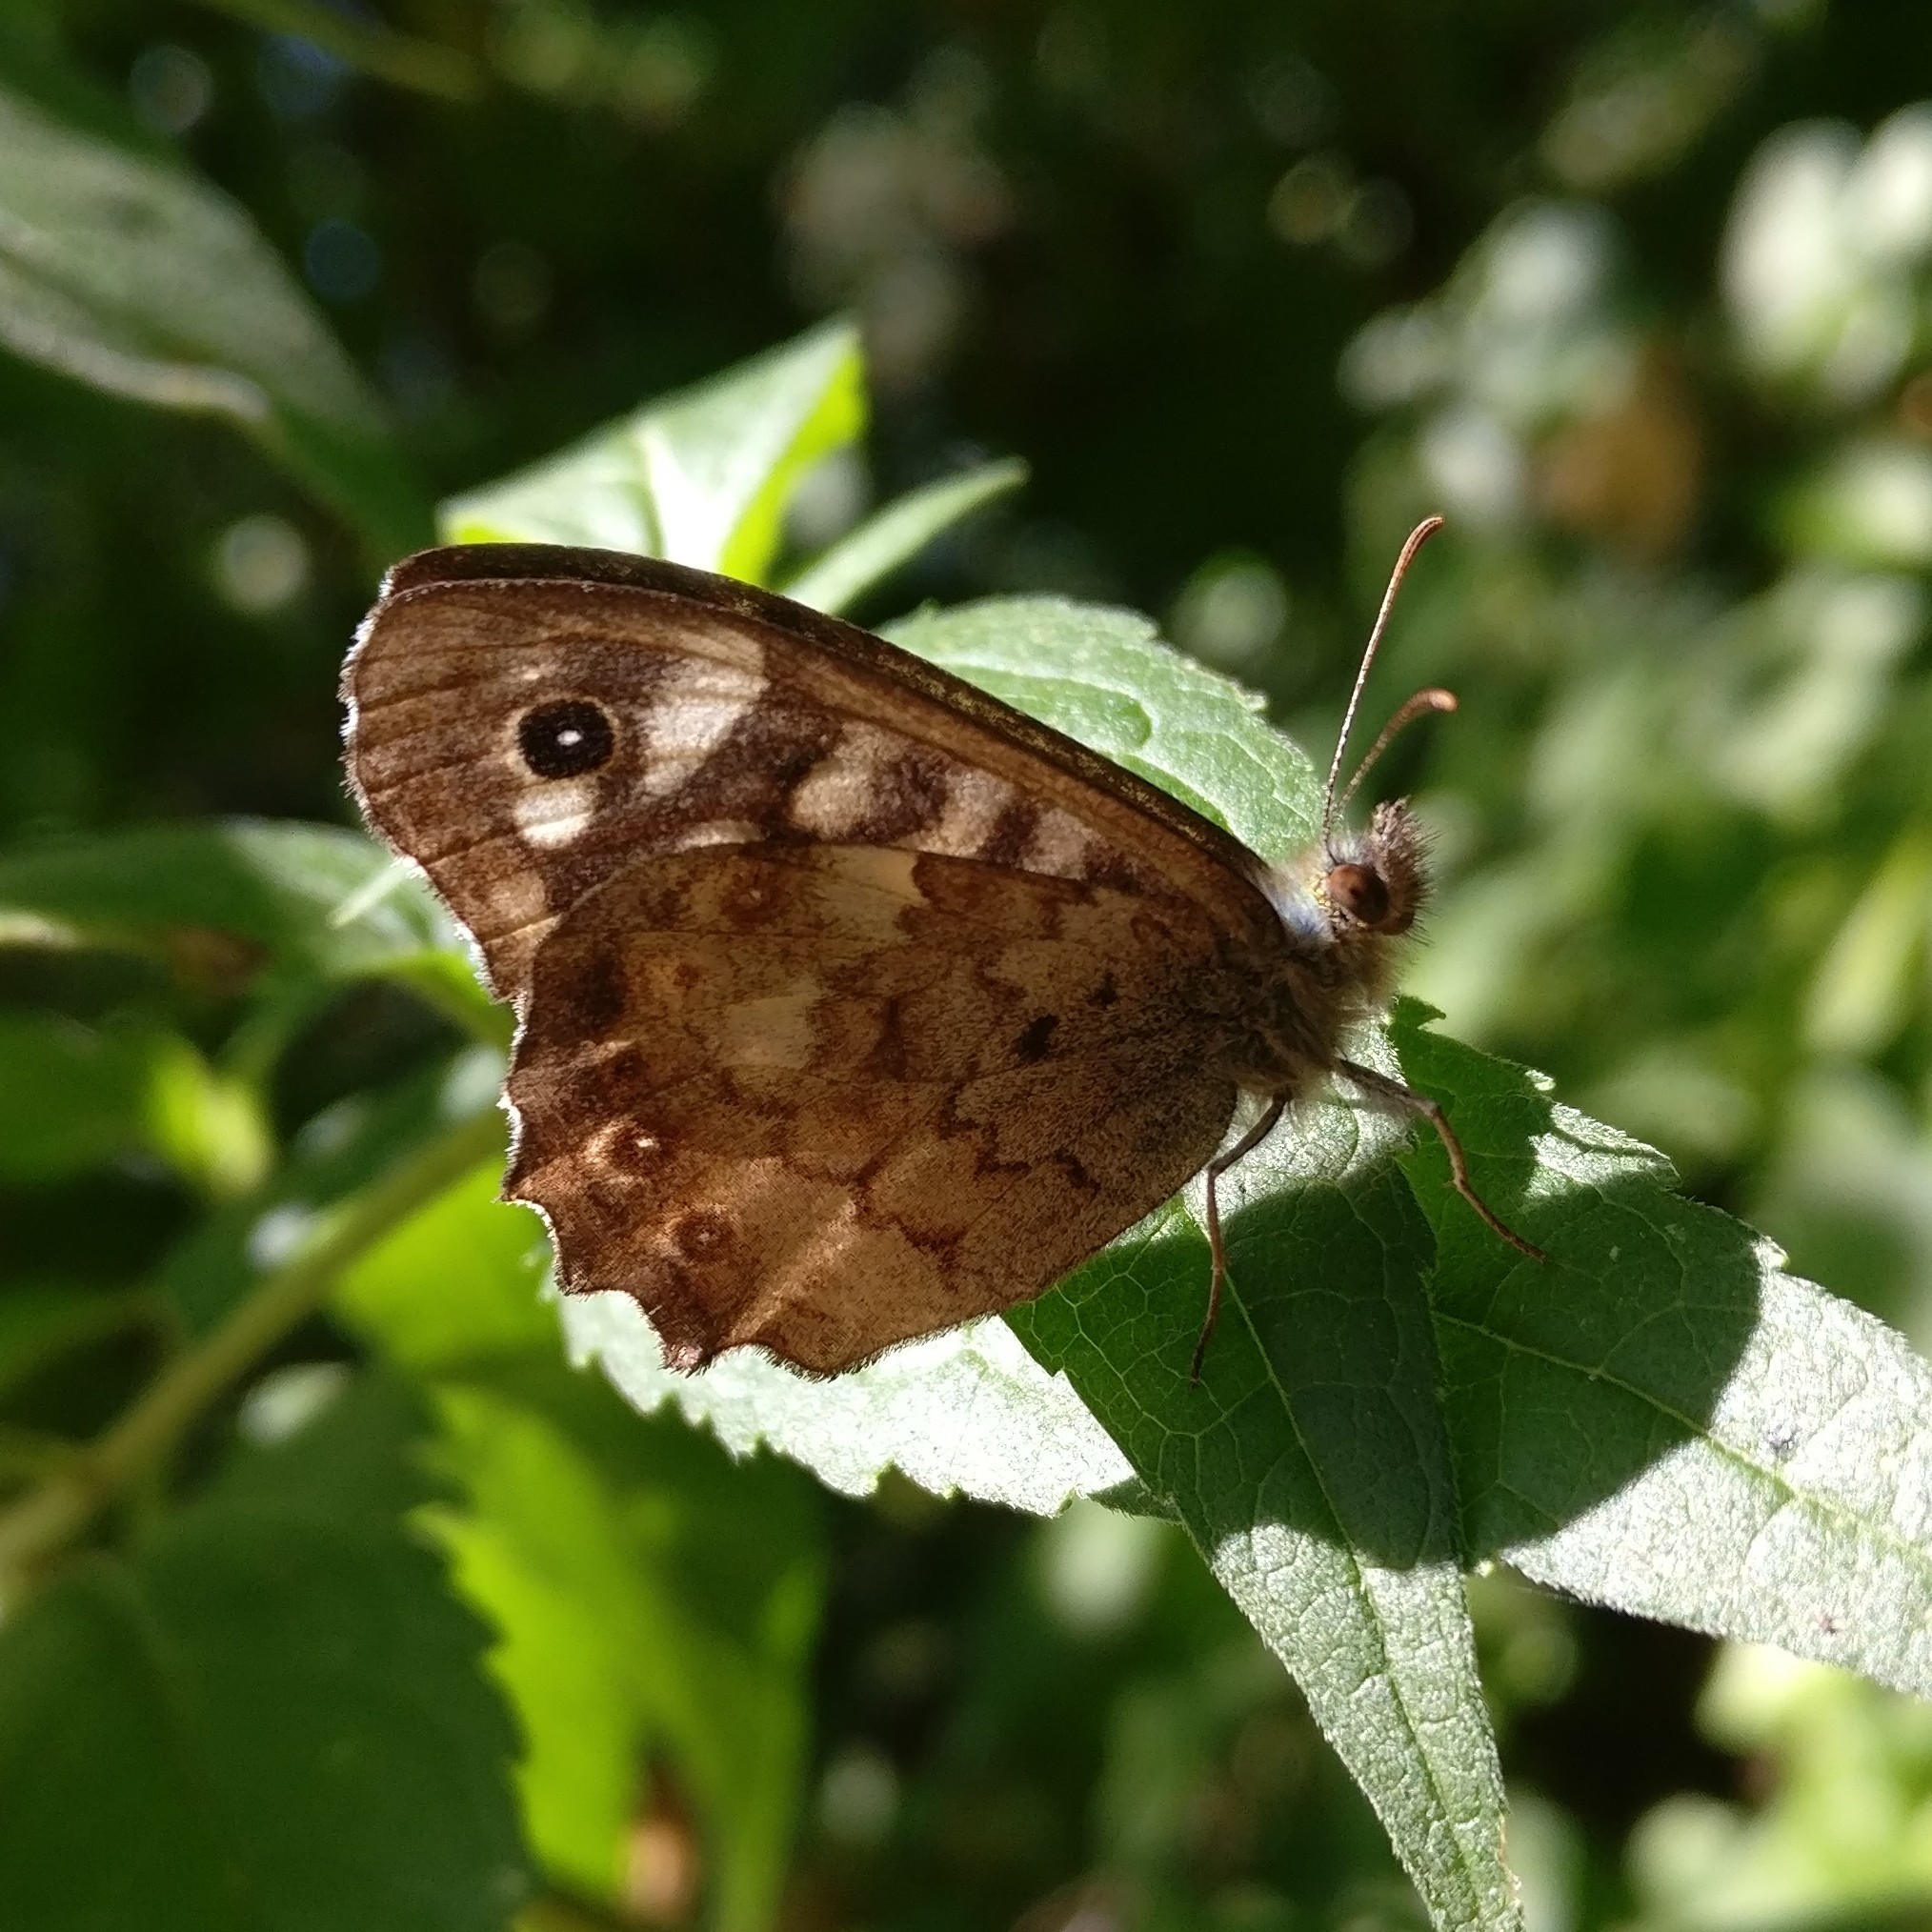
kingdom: Animalia
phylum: Arthropoda
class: Insecta
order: Lepidoptera
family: Nymphalidae
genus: Pararge
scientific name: Pararge aegeria
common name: Speckled wood
